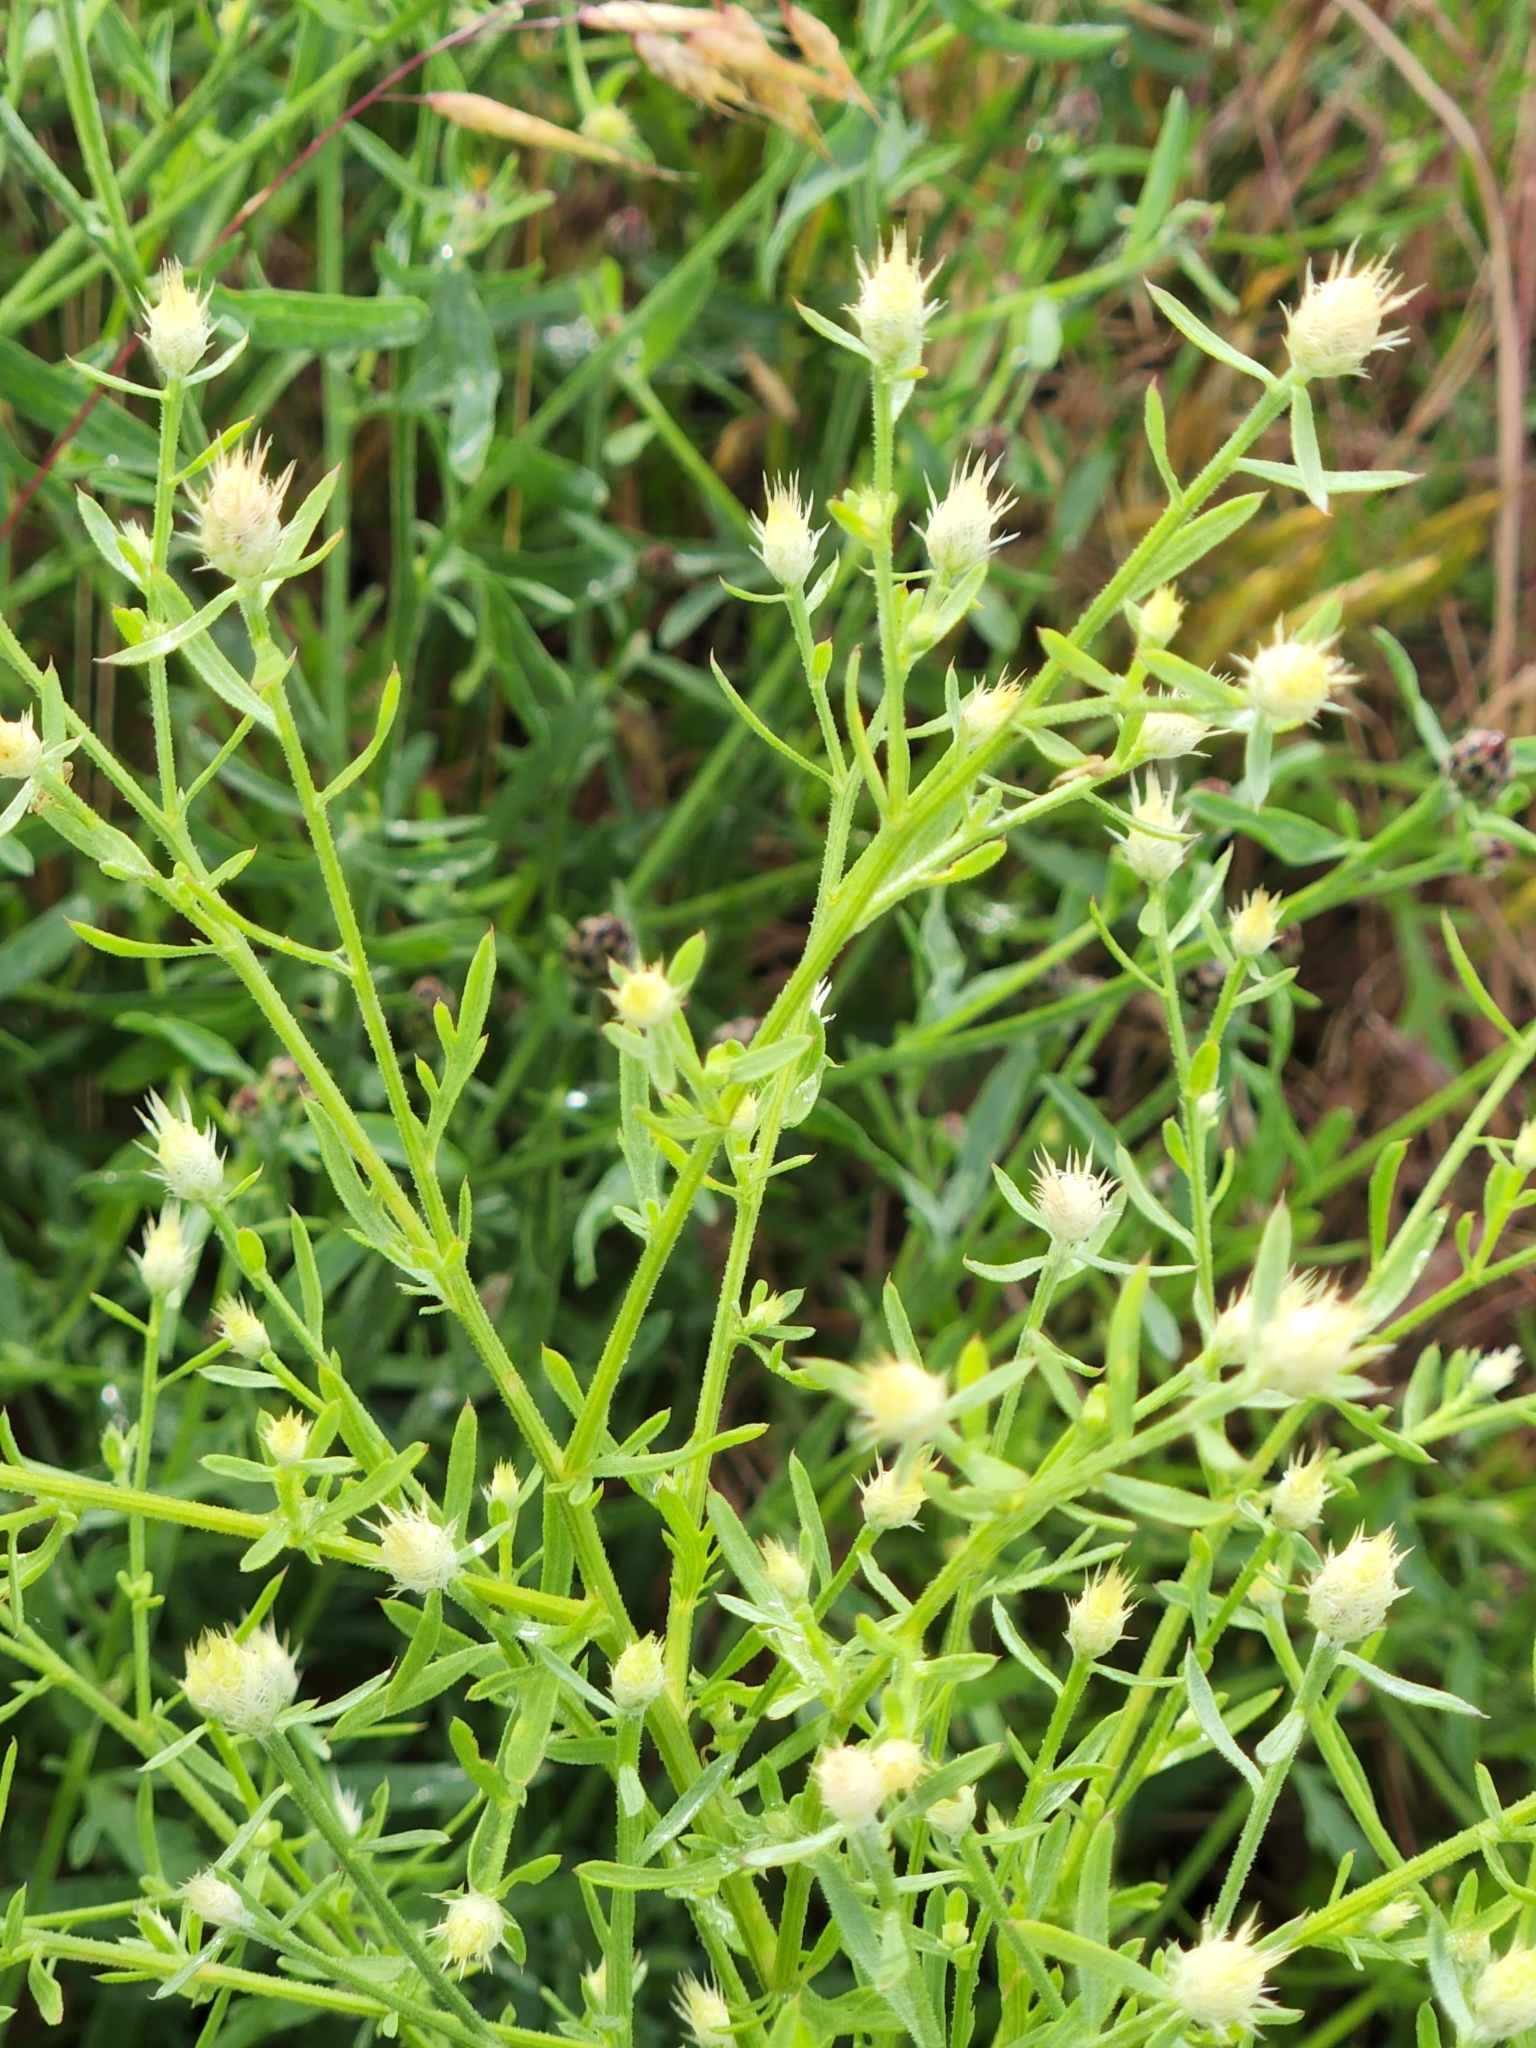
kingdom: Plantae
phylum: Tracheophyta
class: Magnoliopsida
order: Asterales
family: Asteraceae
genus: Centaurea
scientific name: Centaurea diffusa
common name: Diffuse knapweed
